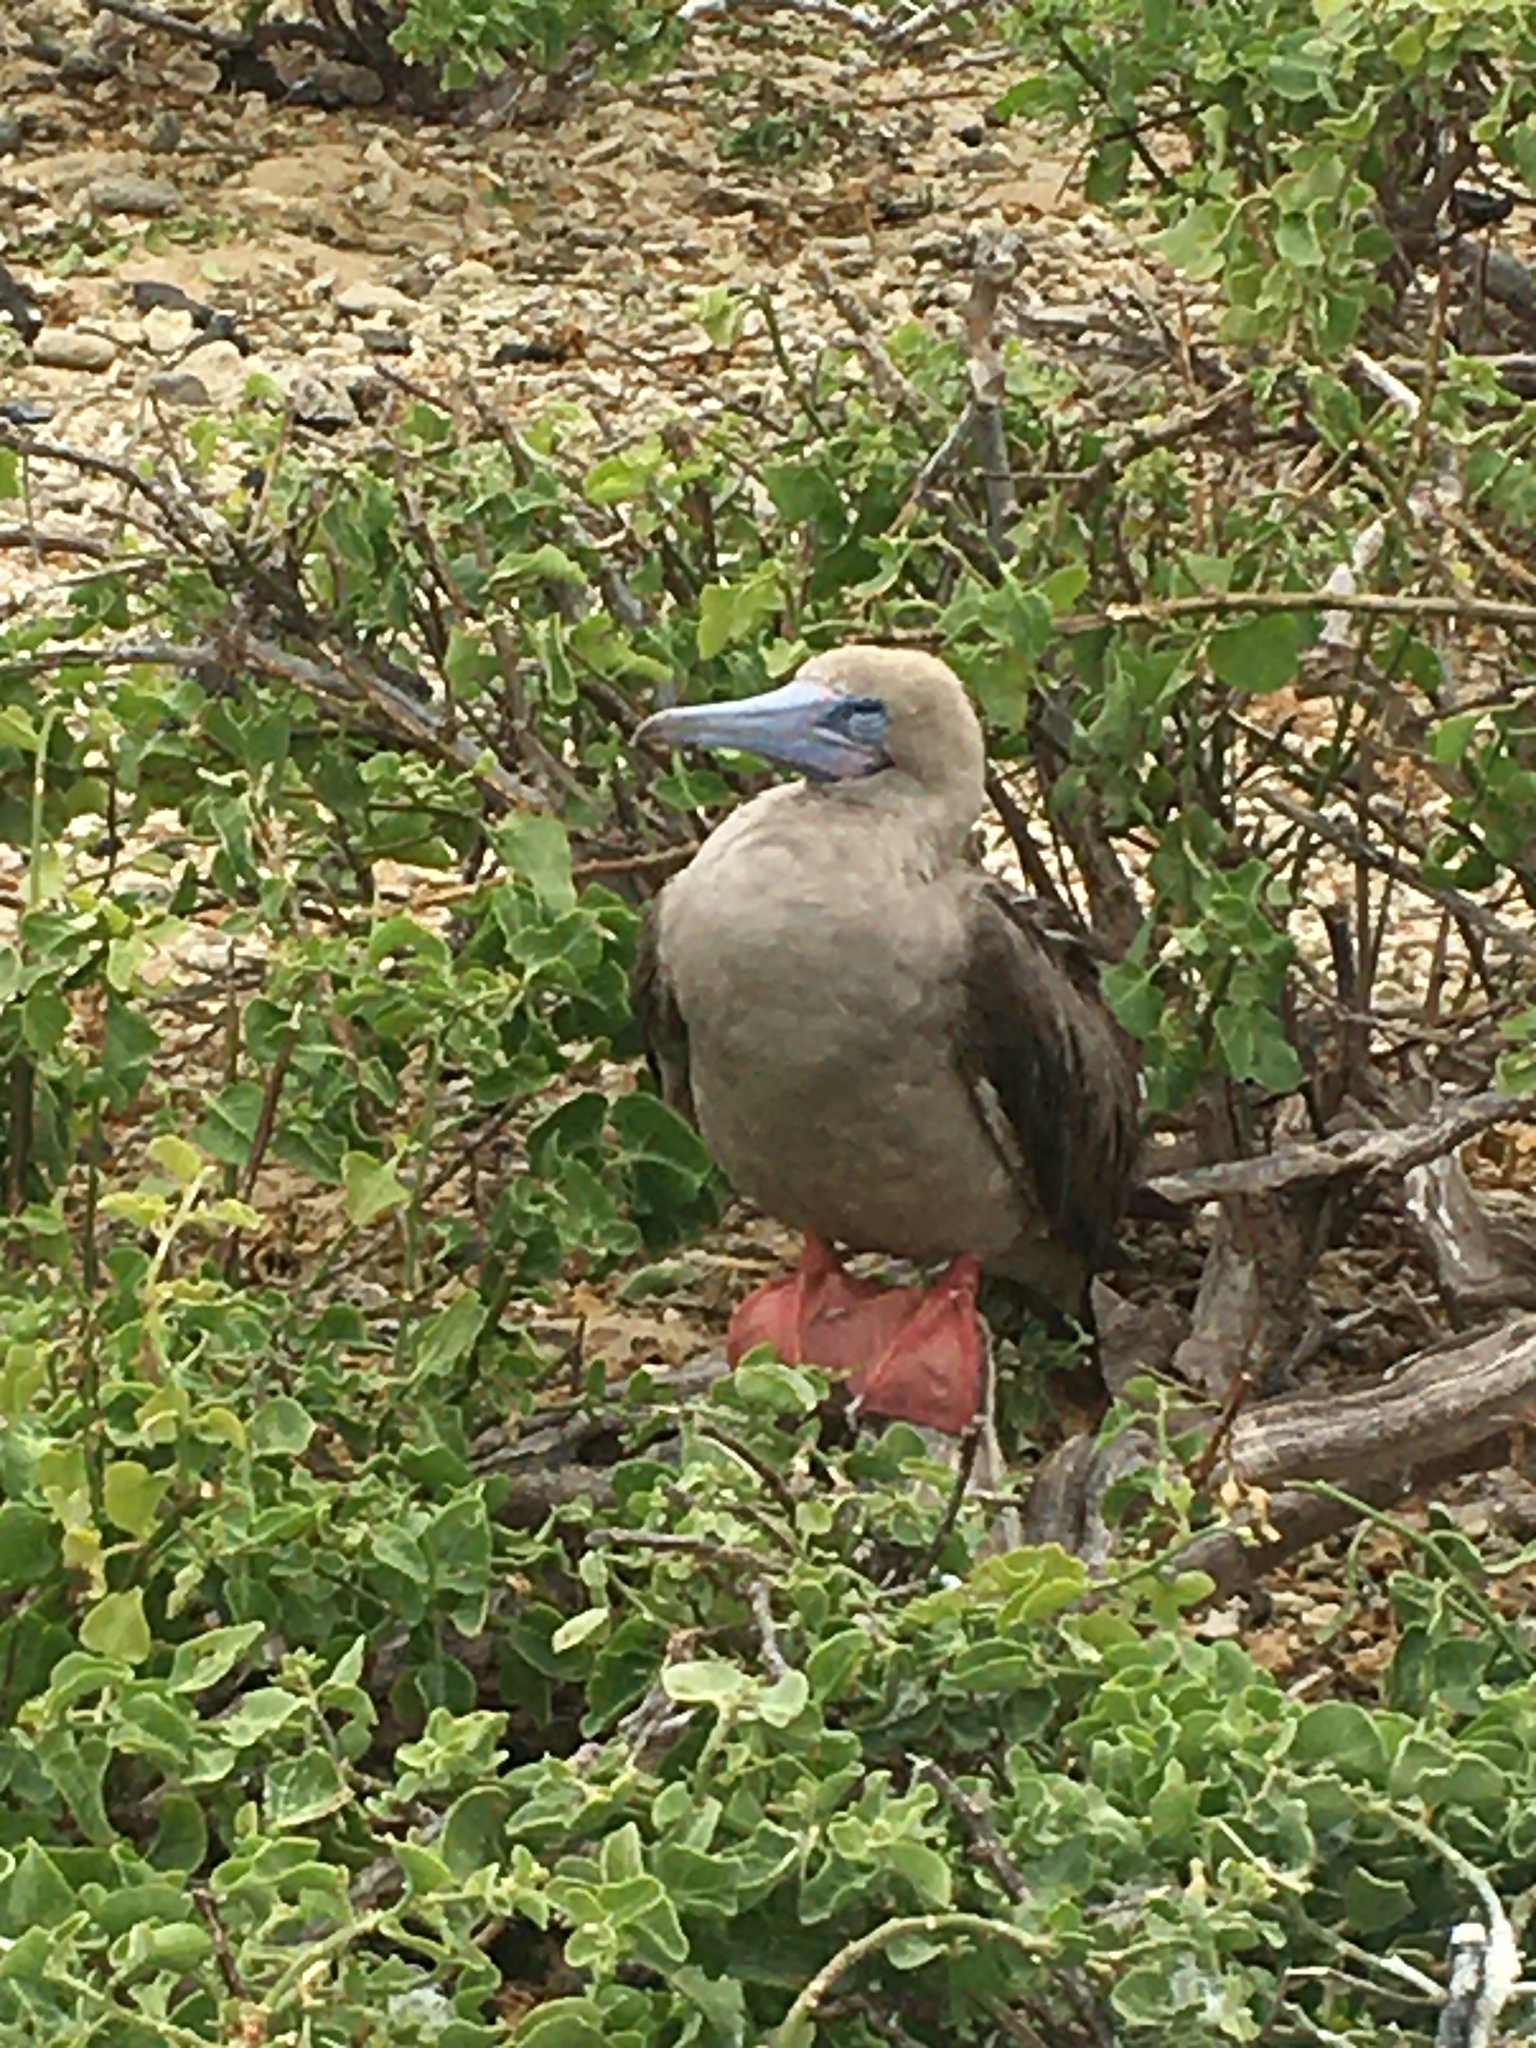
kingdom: Animalia
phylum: Chordata
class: Aves
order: Suliformes
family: Sulidae
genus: Sula
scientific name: Sula sula
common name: Red-footed booby
